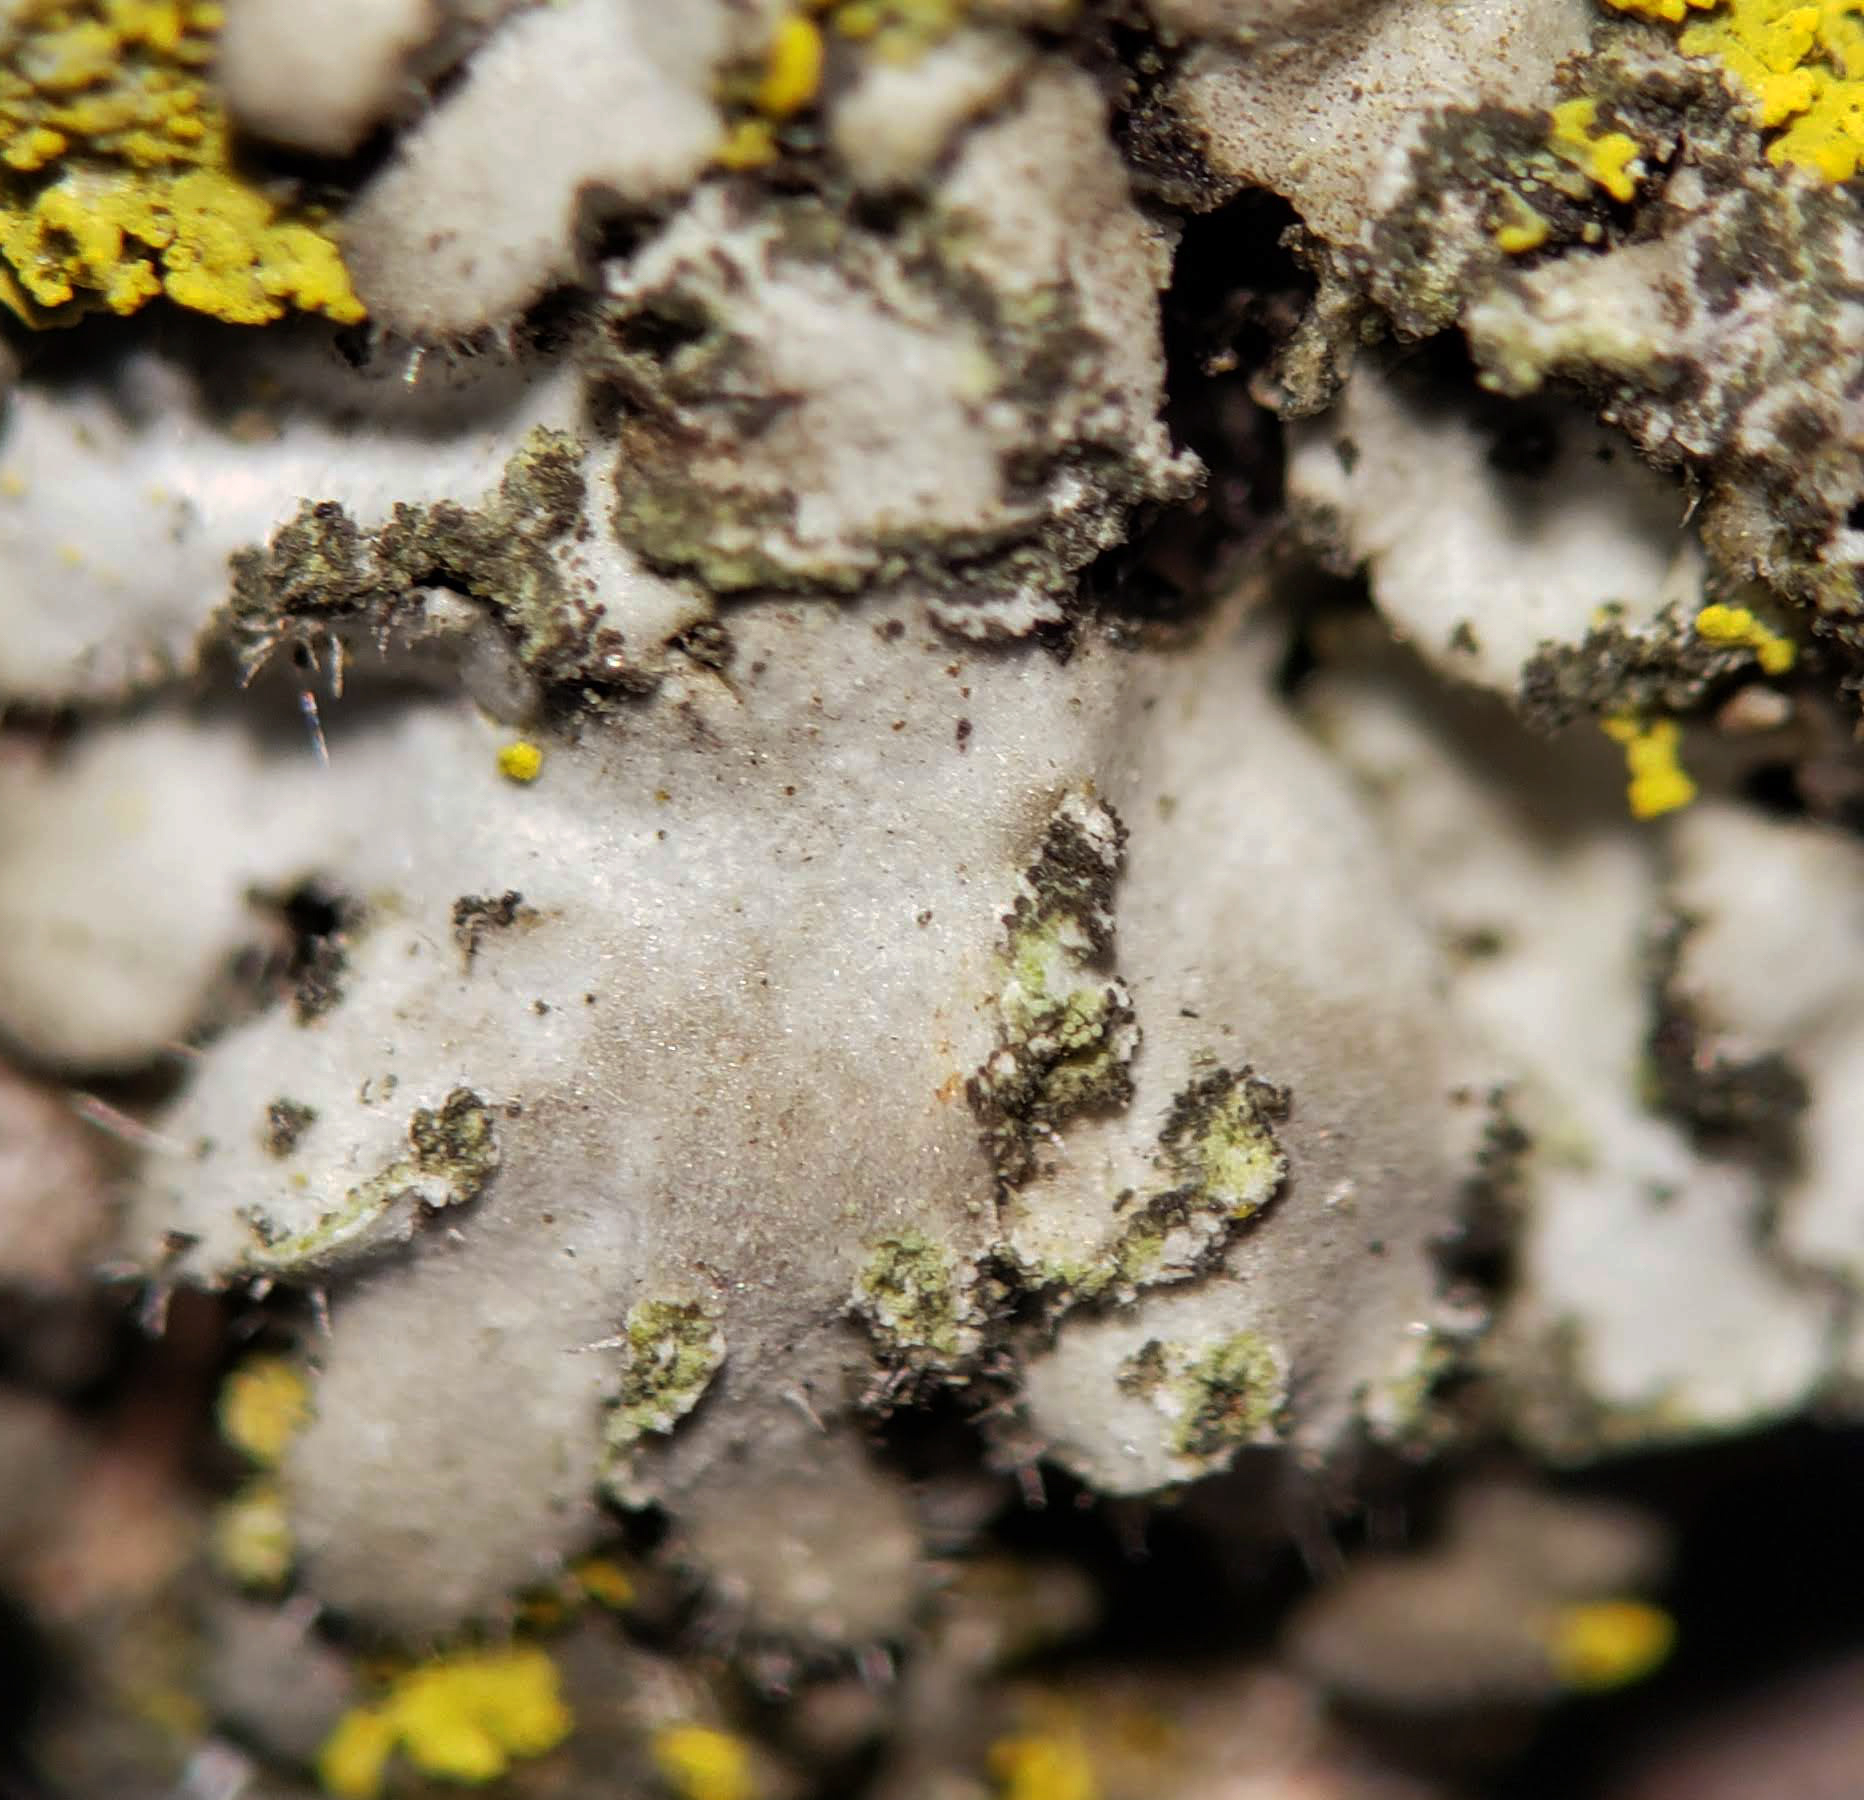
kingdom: Fungi
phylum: Ascomycota
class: Lecanoromycetes
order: Caliciales
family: Physciaceae
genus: Phaeophyscia
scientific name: Phaeophyscia hirsuta
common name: Hairy shadow lichen
